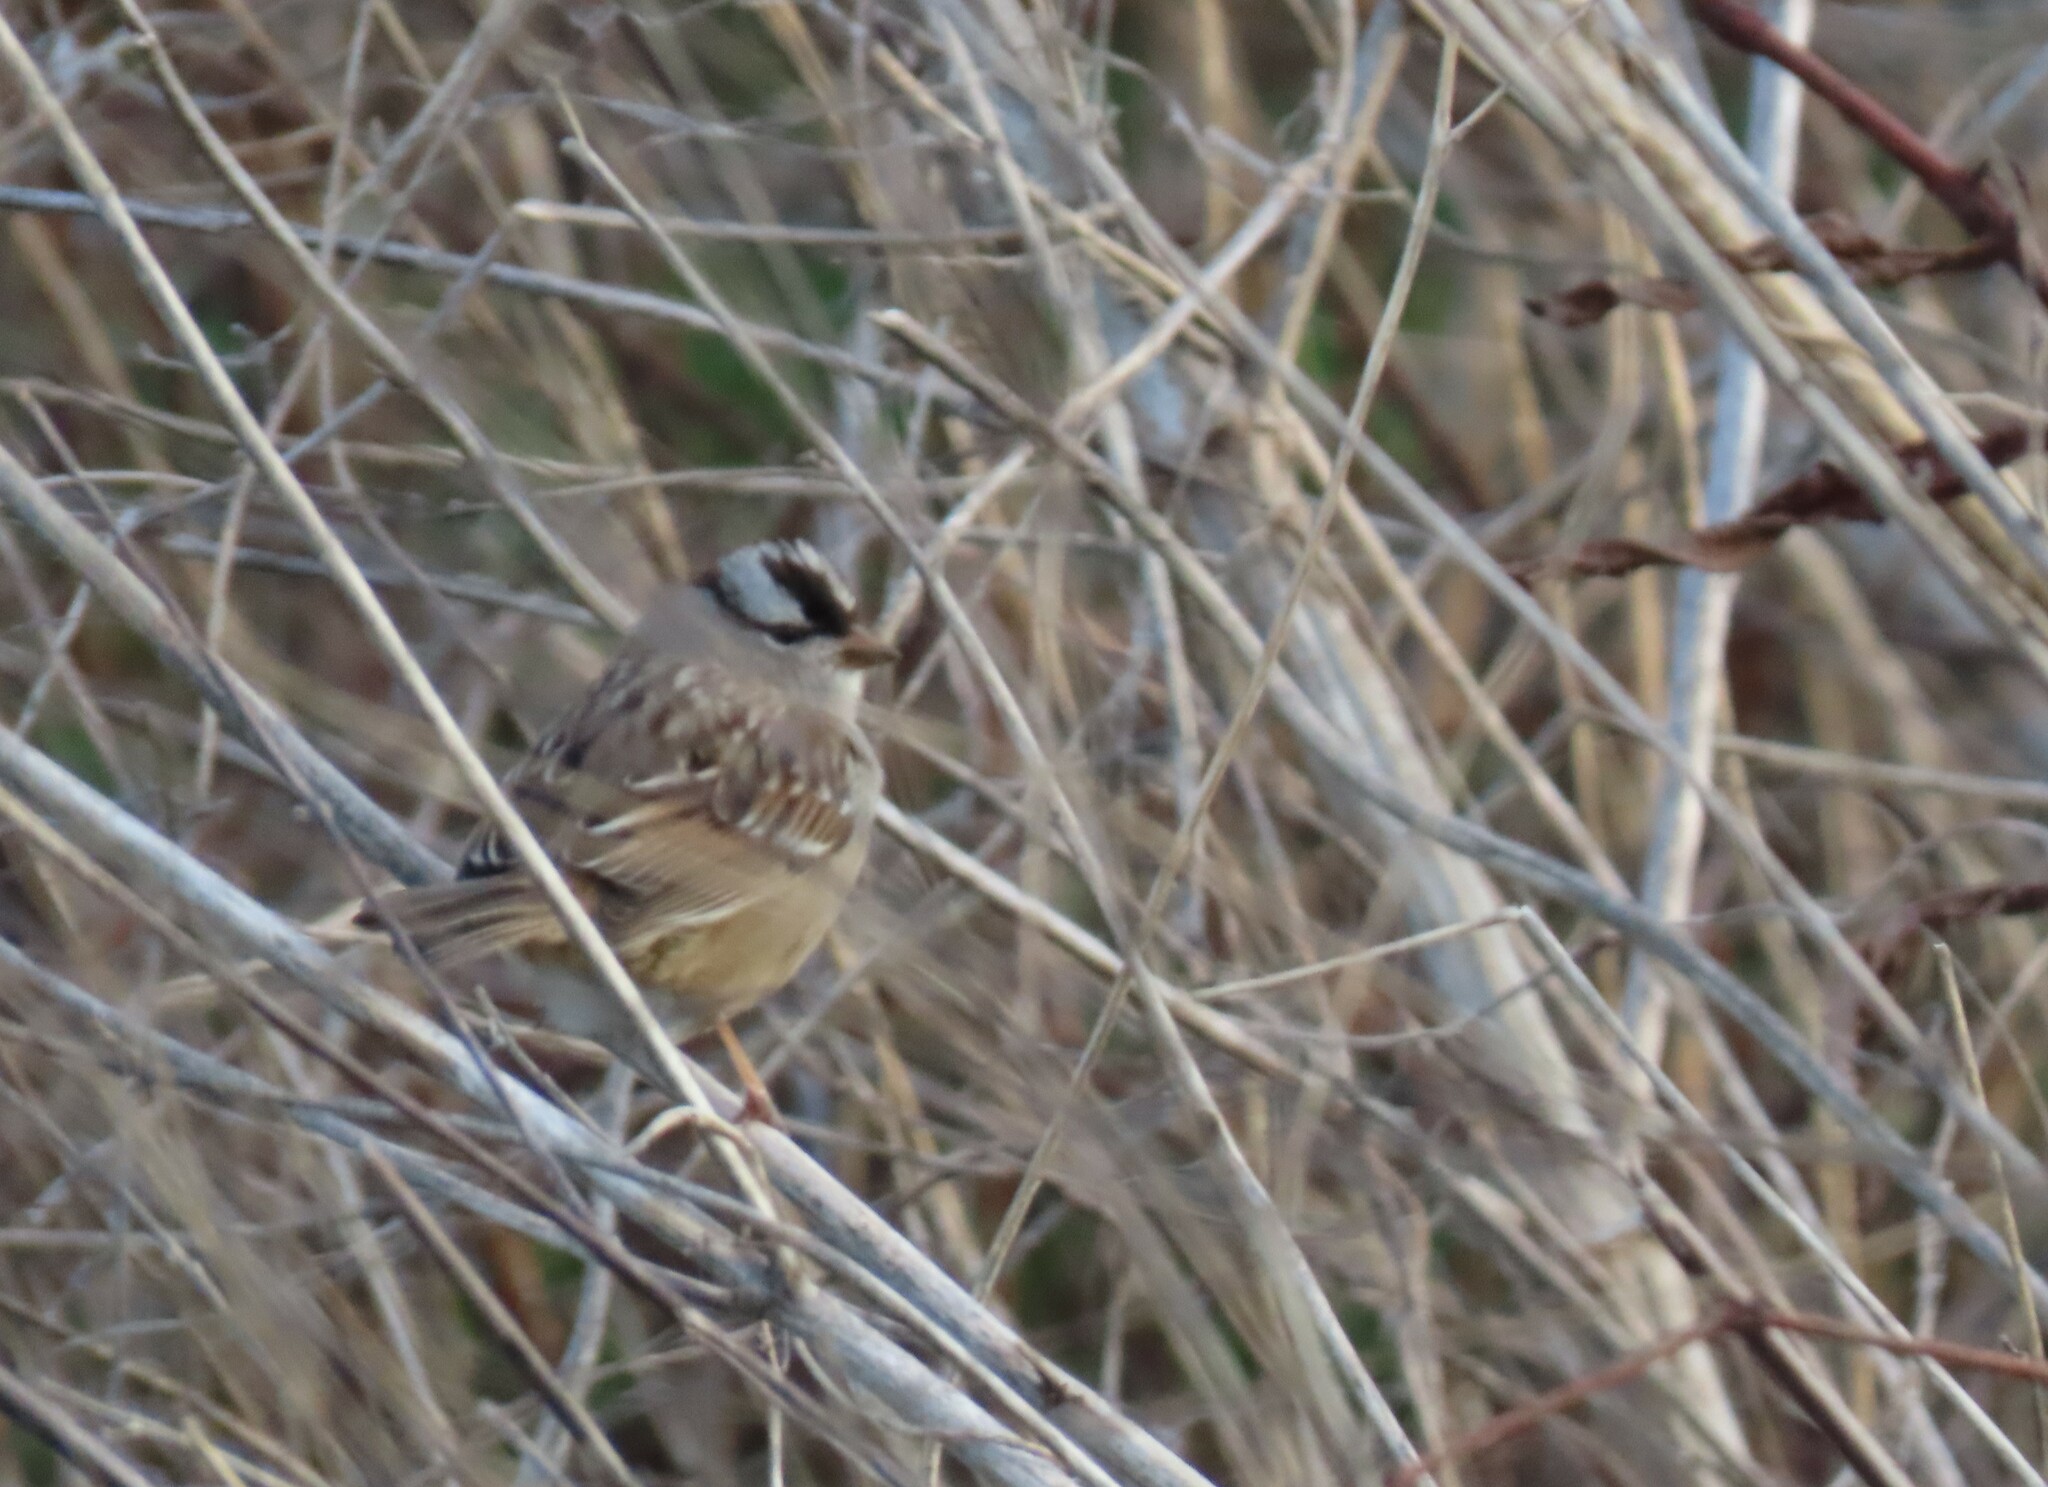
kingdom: Animalia
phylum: Chordata
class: Aves
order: Passeriformes
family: Passerellidae
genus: Zonotrichia
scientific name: Zonotrichia leucophrys
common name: White-crowned sparrow
